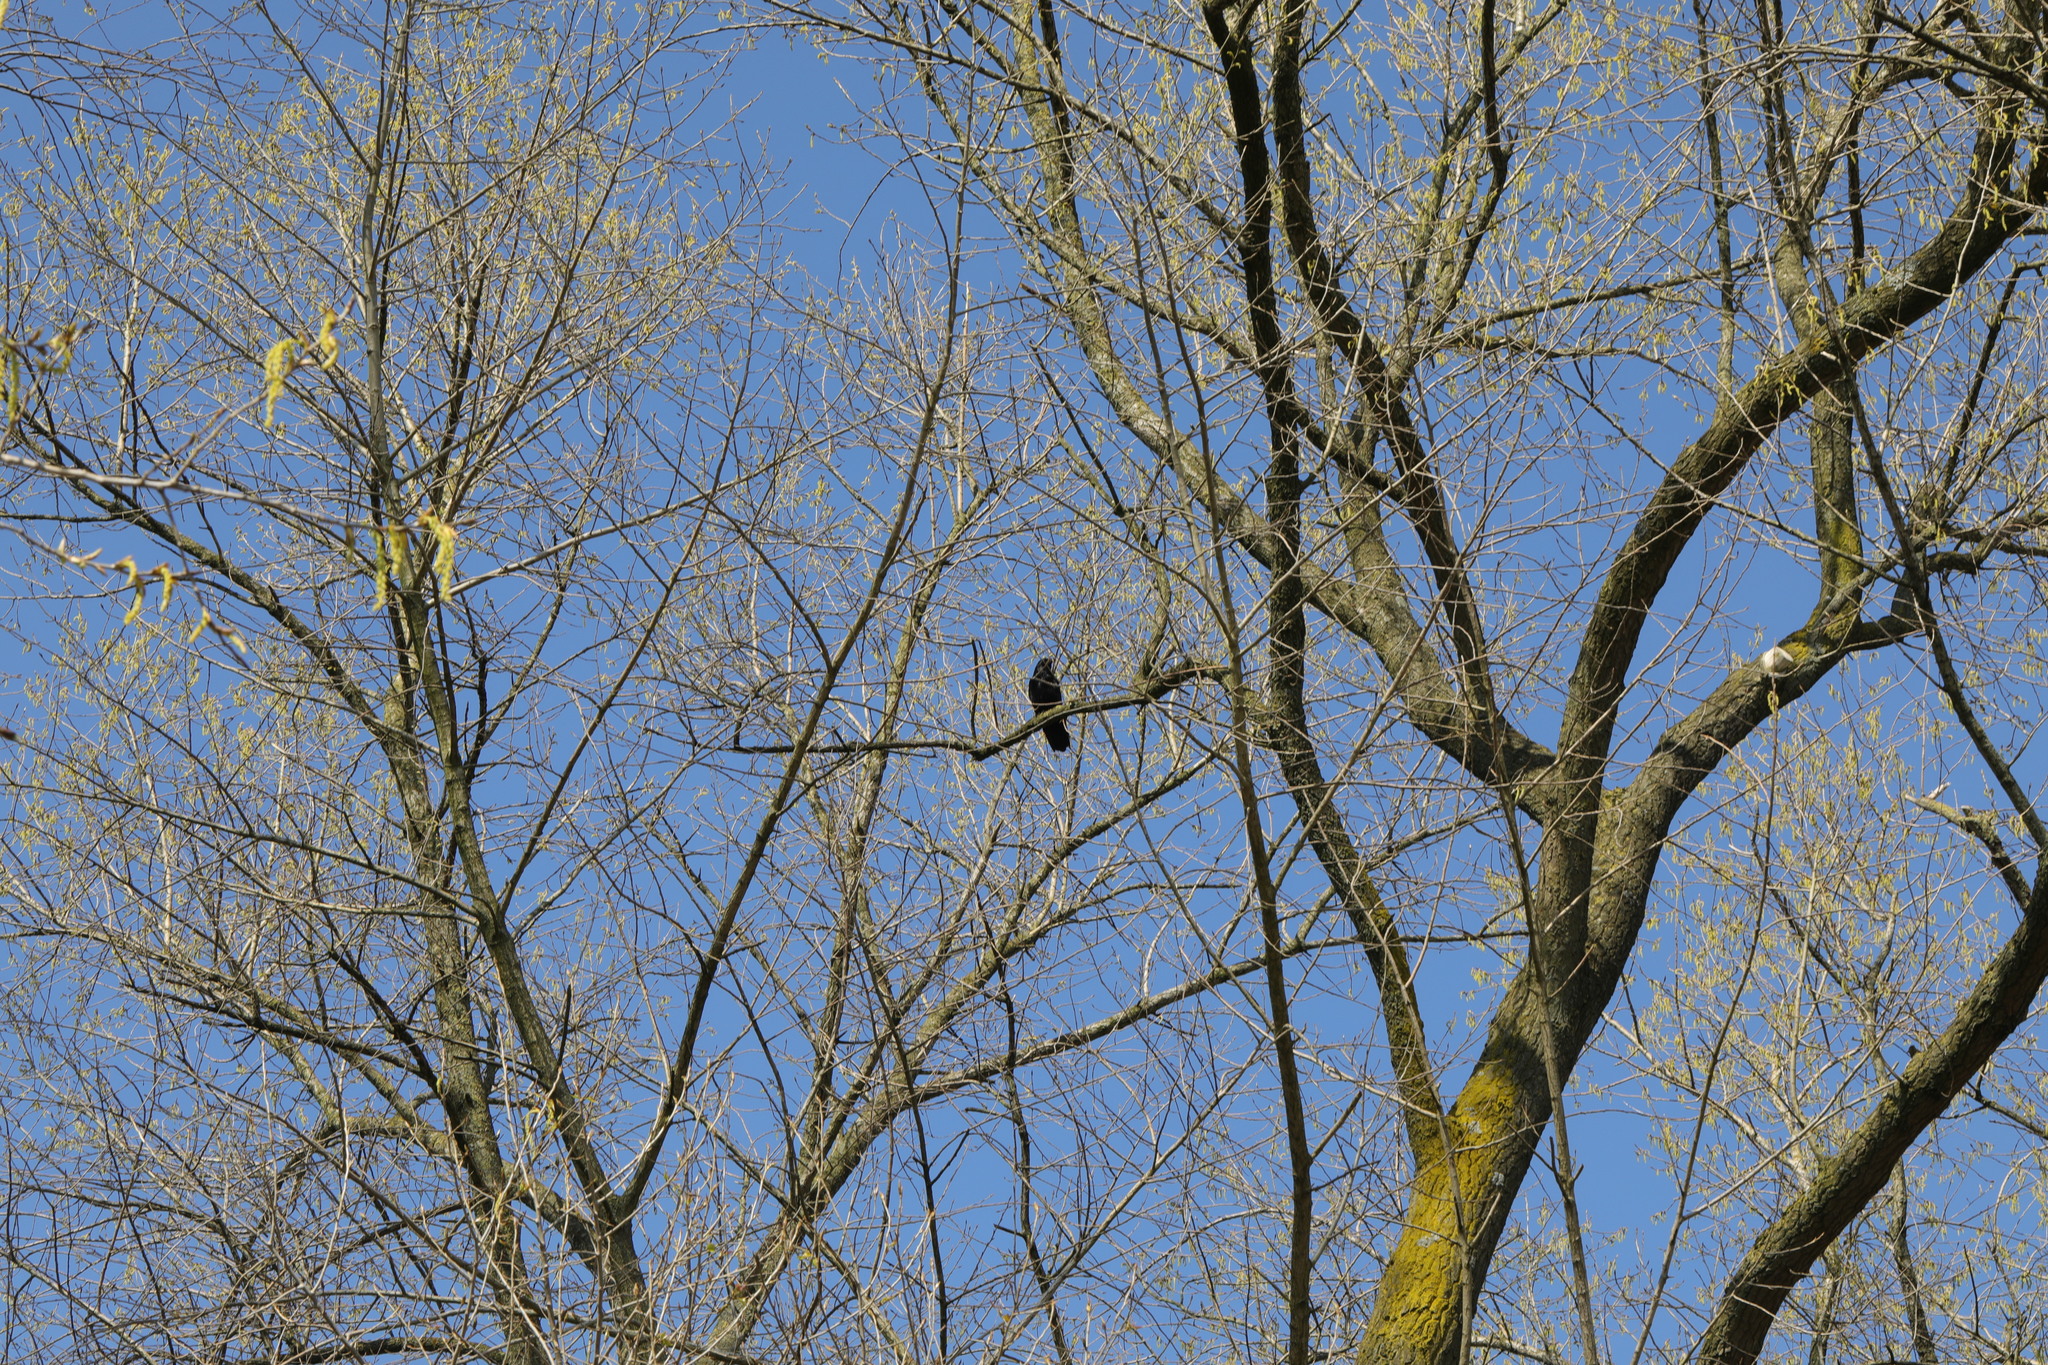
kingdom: Animalia
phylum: Chordata
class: Aves
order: Passeriformes
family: Corvidae
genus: Corvus
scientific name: Corvus corone
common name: Carrion crow
